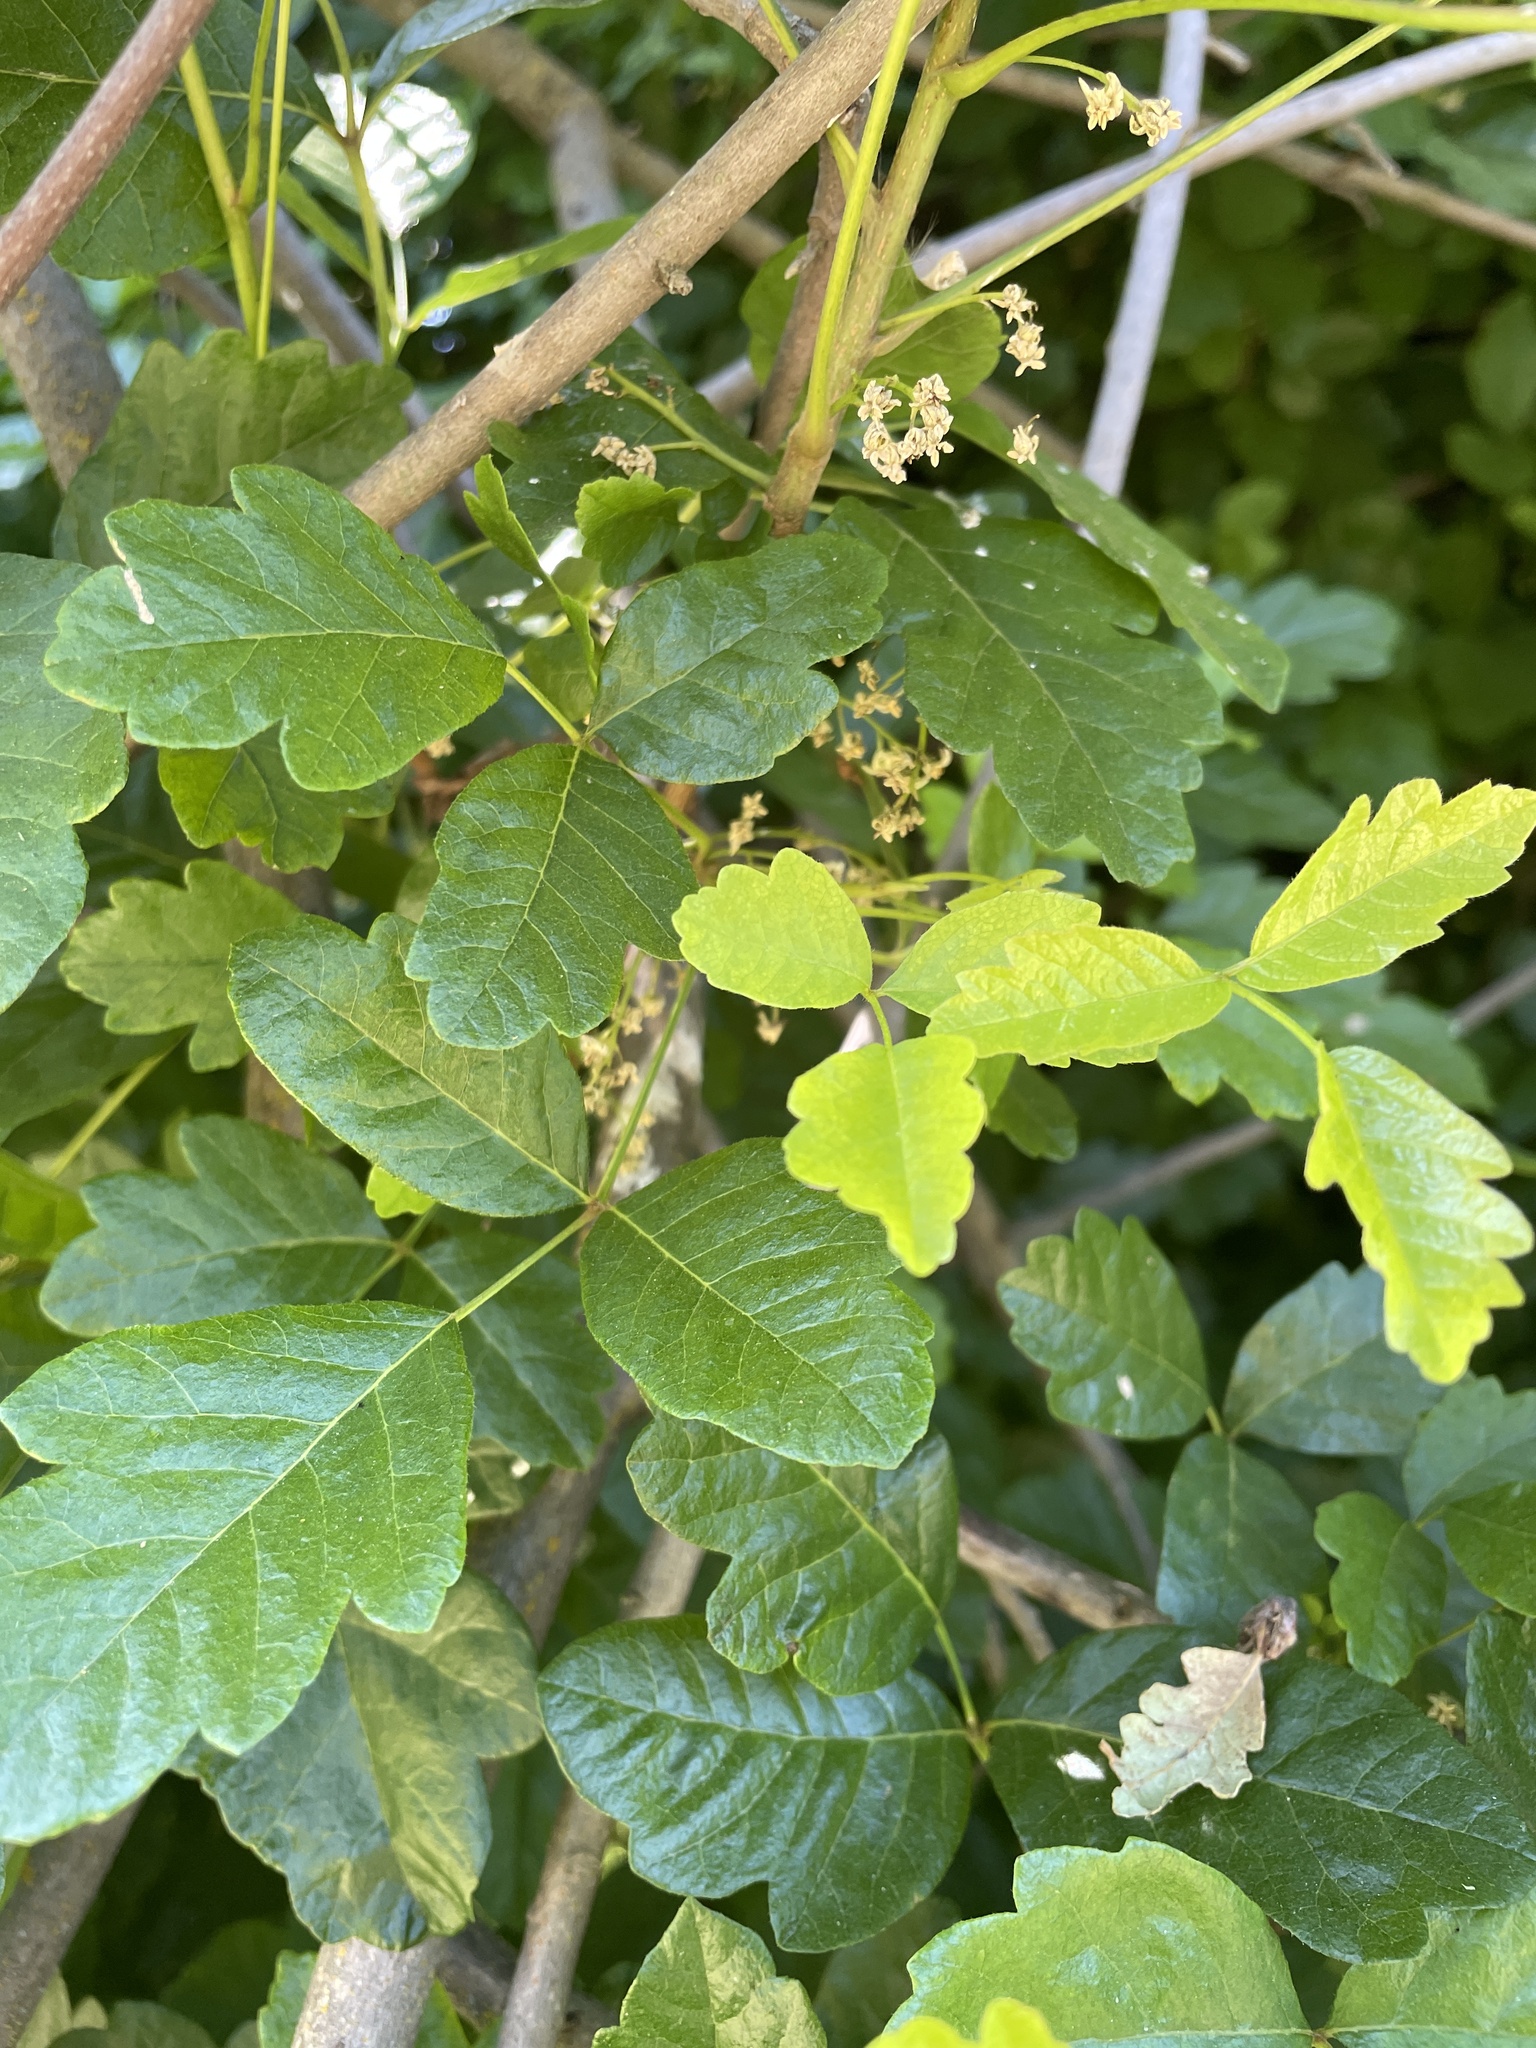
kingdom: Plantae
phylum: Tracheophyta
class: Magnoliopsida
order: Sapindales
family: Anacardiaceae
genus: Toxicodendron
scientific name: Toxicodendron diversilobum
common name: Pacific poison-oak
